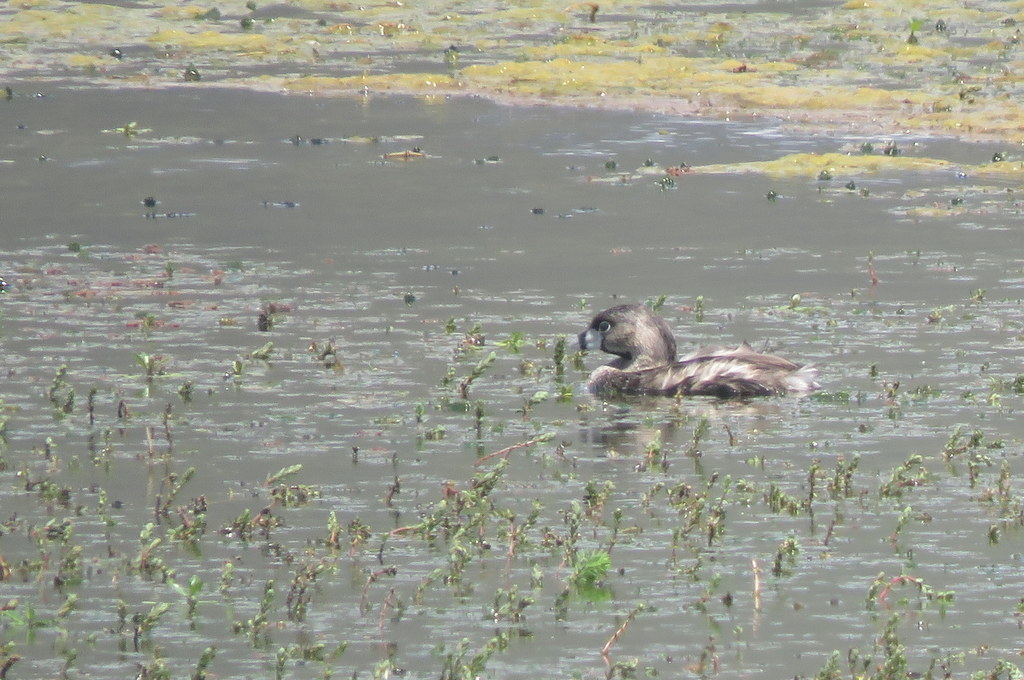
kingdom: Animalia
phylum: Chordata
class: Aves
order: Podicipediformes
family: Podicipedidae
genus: Podilymbus
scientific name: Podilymbus podiceps
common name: Pied-billed grebe
